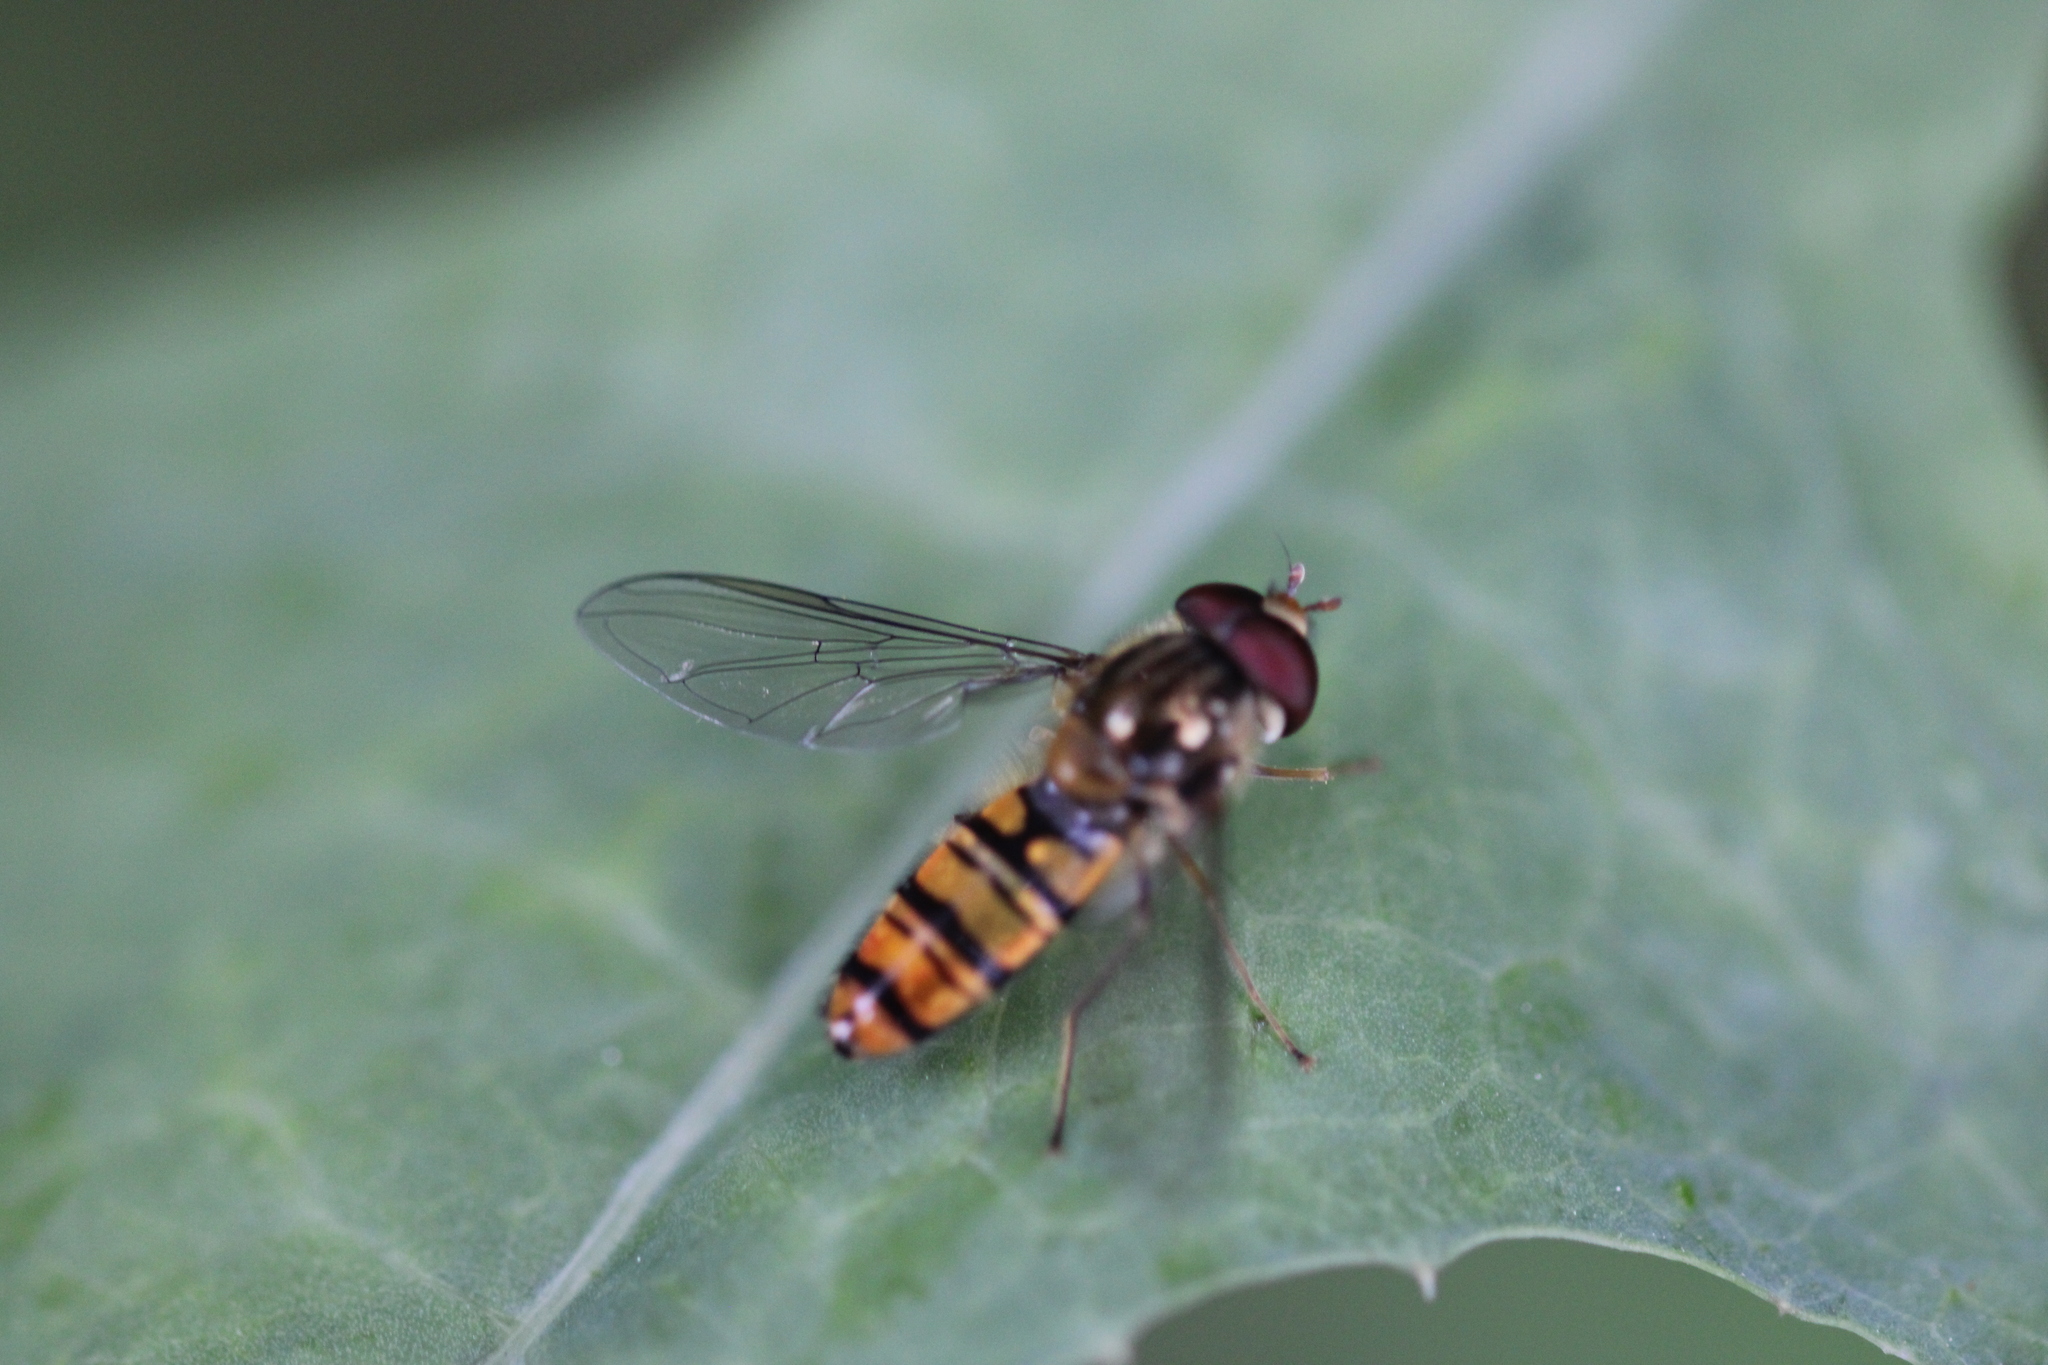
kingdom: Animalia
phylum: Arthropoda
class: Insecta
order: Diptera
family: Syrphidae
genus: Episyrphus
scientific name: Episyrphus balteatus
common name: Marmalade hoverfly
